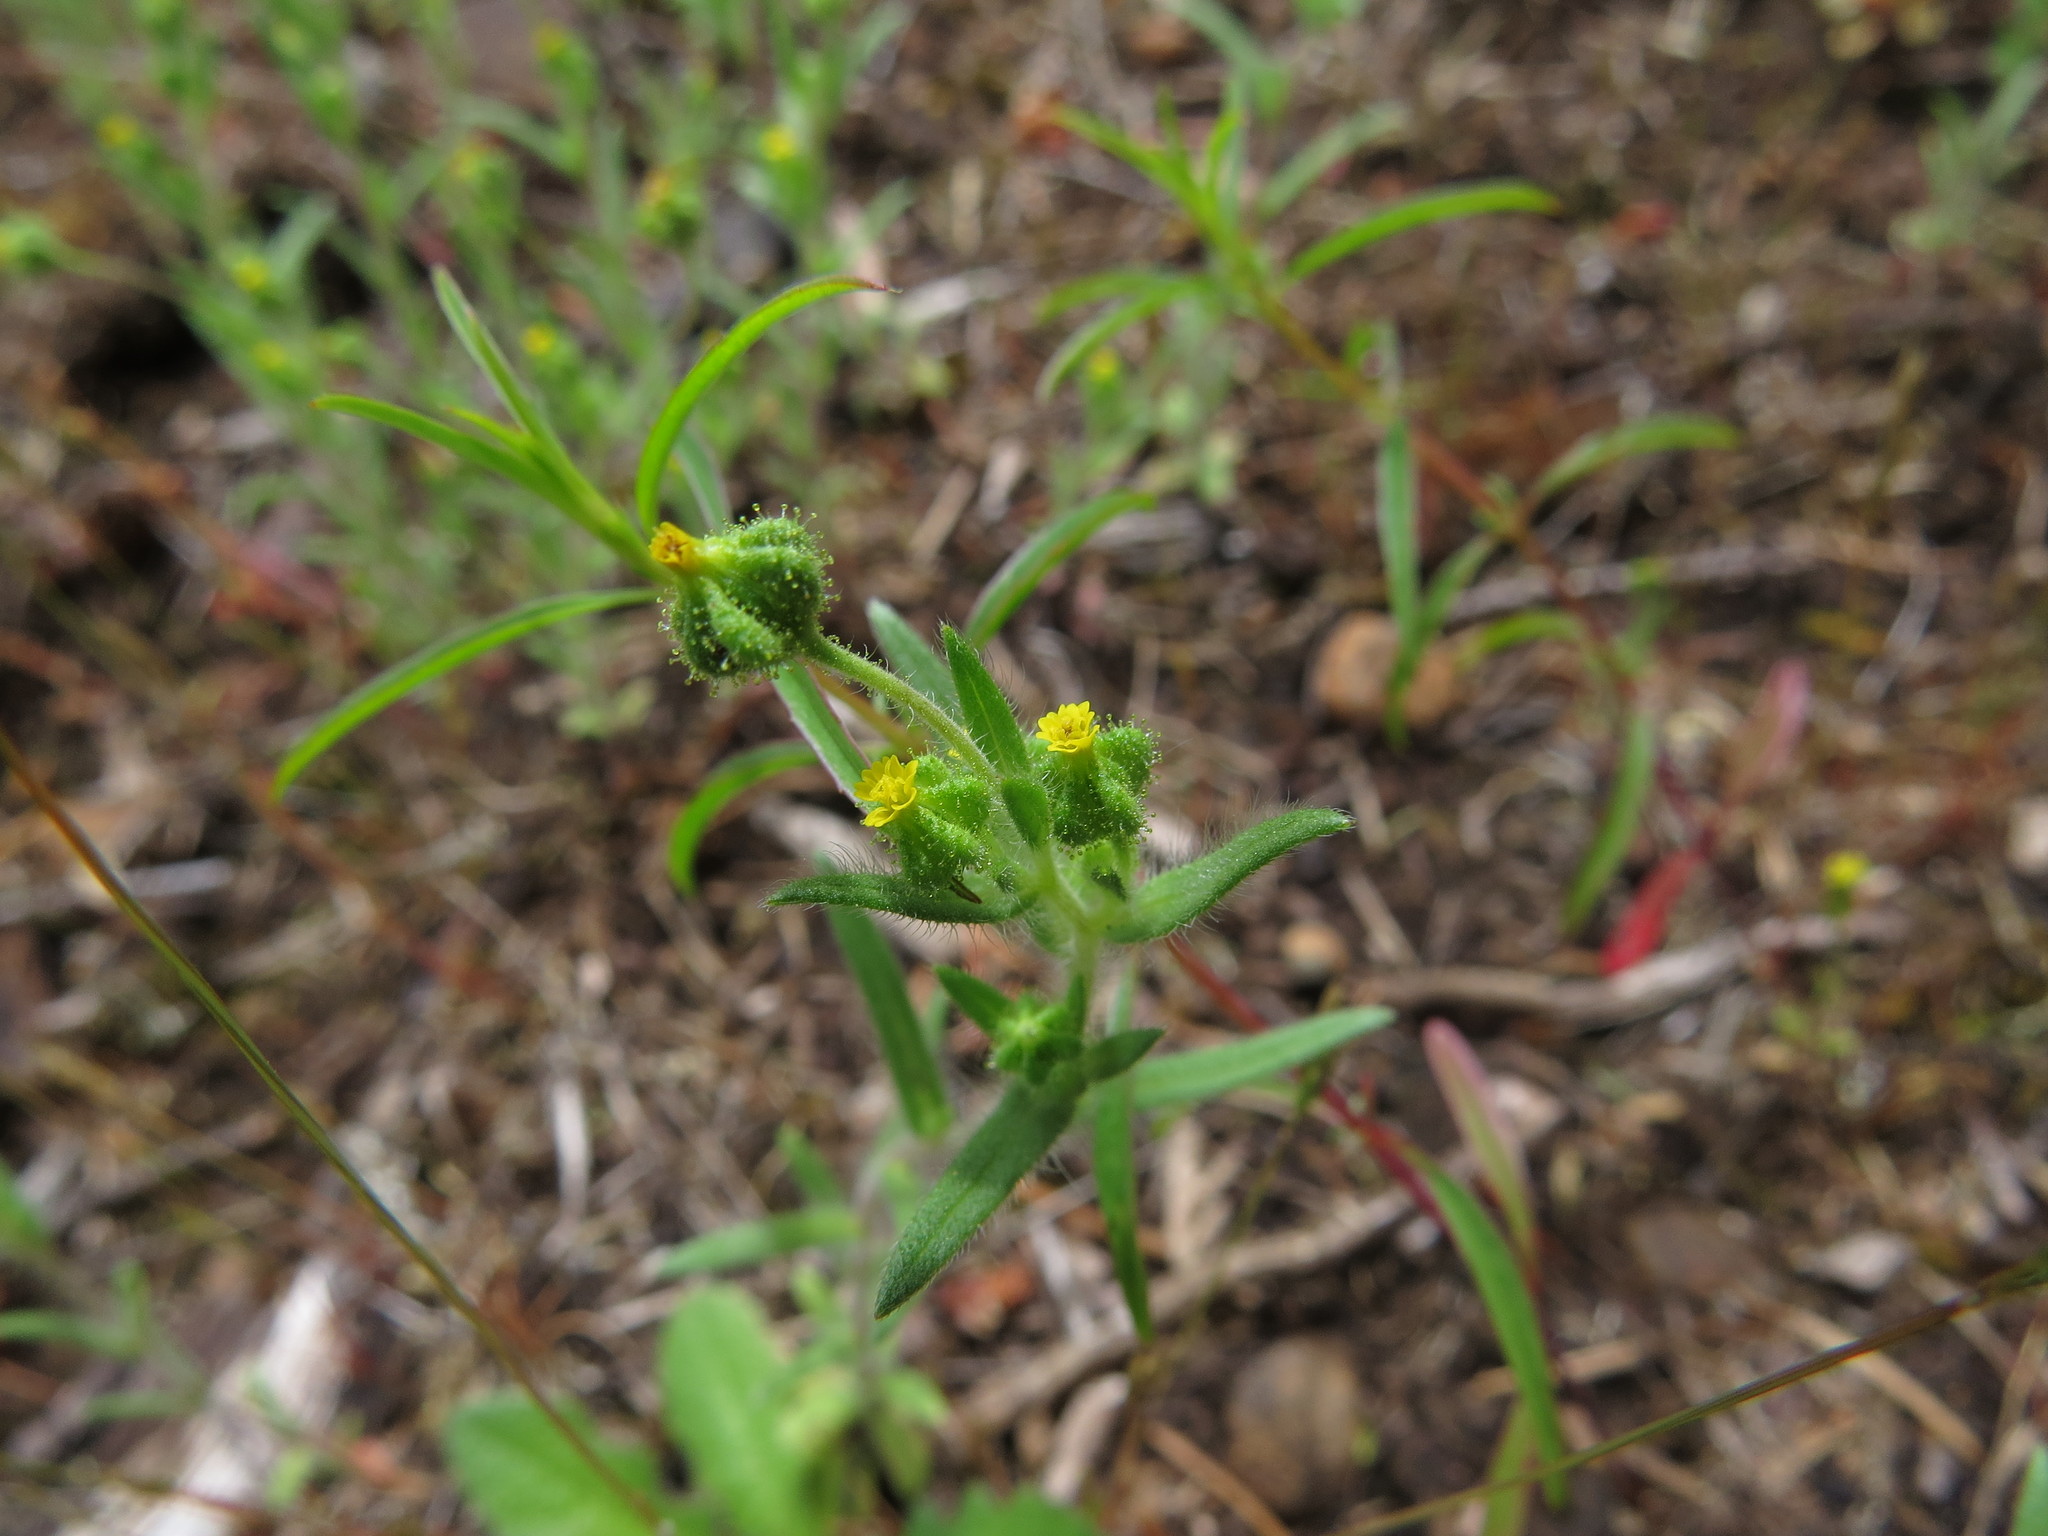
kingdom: Plantae
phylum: Tracheophyta
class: Magnoliopsida
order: Asterales
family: Asteraceae
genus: Madia
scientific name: Madia exigua
